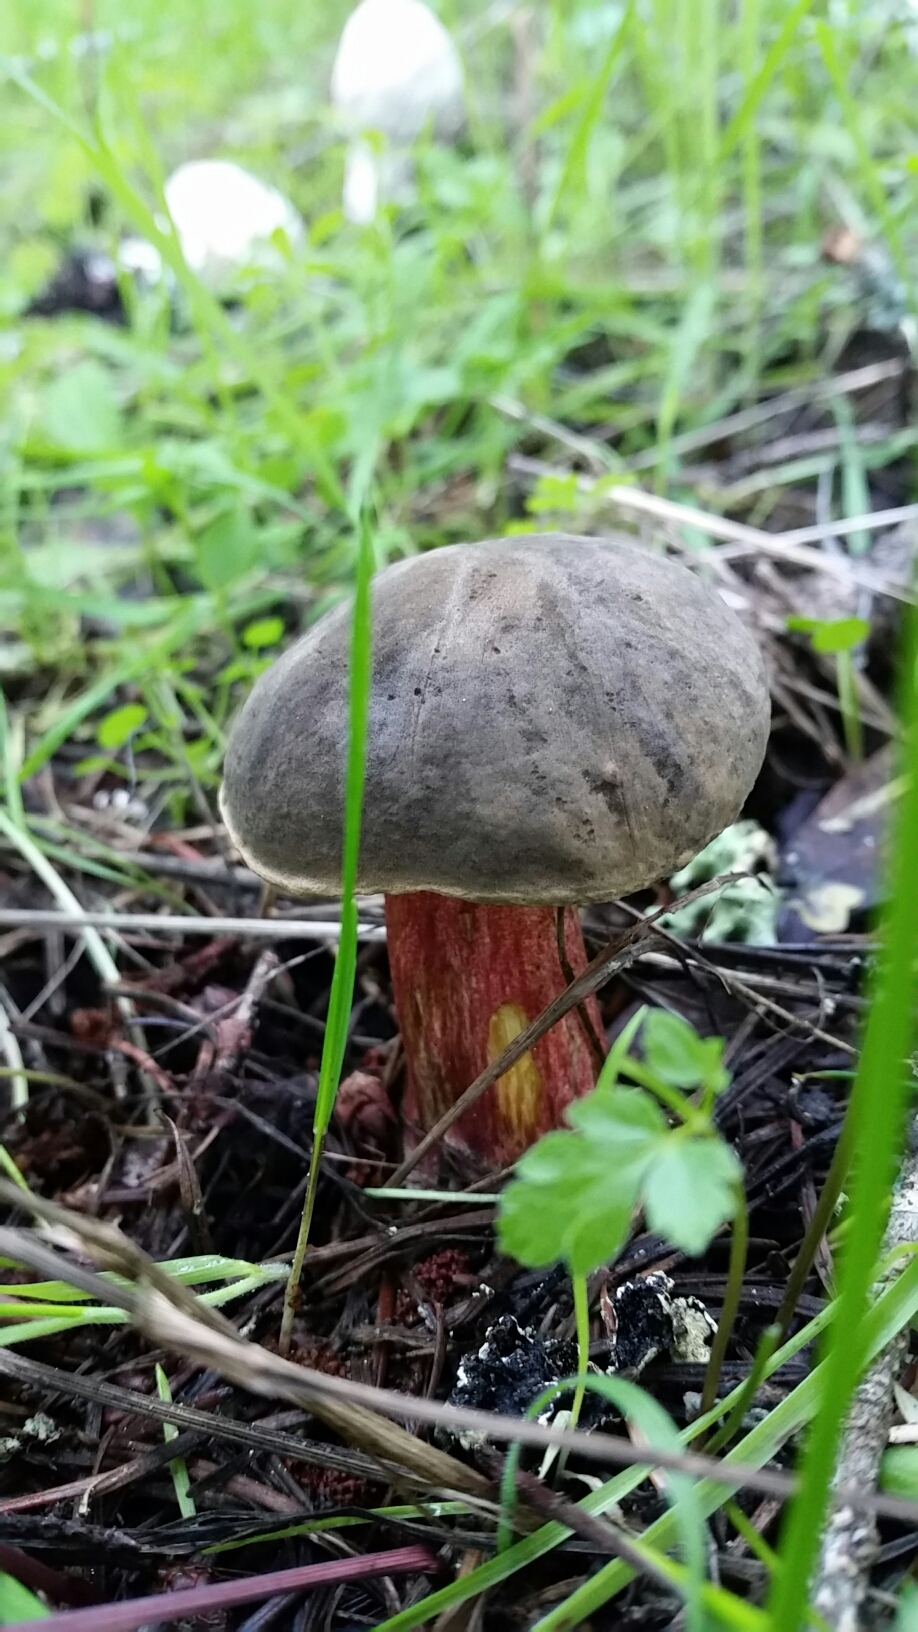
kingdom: Fungi
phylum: Basidiomycota
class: Agaricomycetes
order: Boletales
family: Boletaceae
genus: Xerocomellus
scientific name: Xerocomellus atropurpureus
